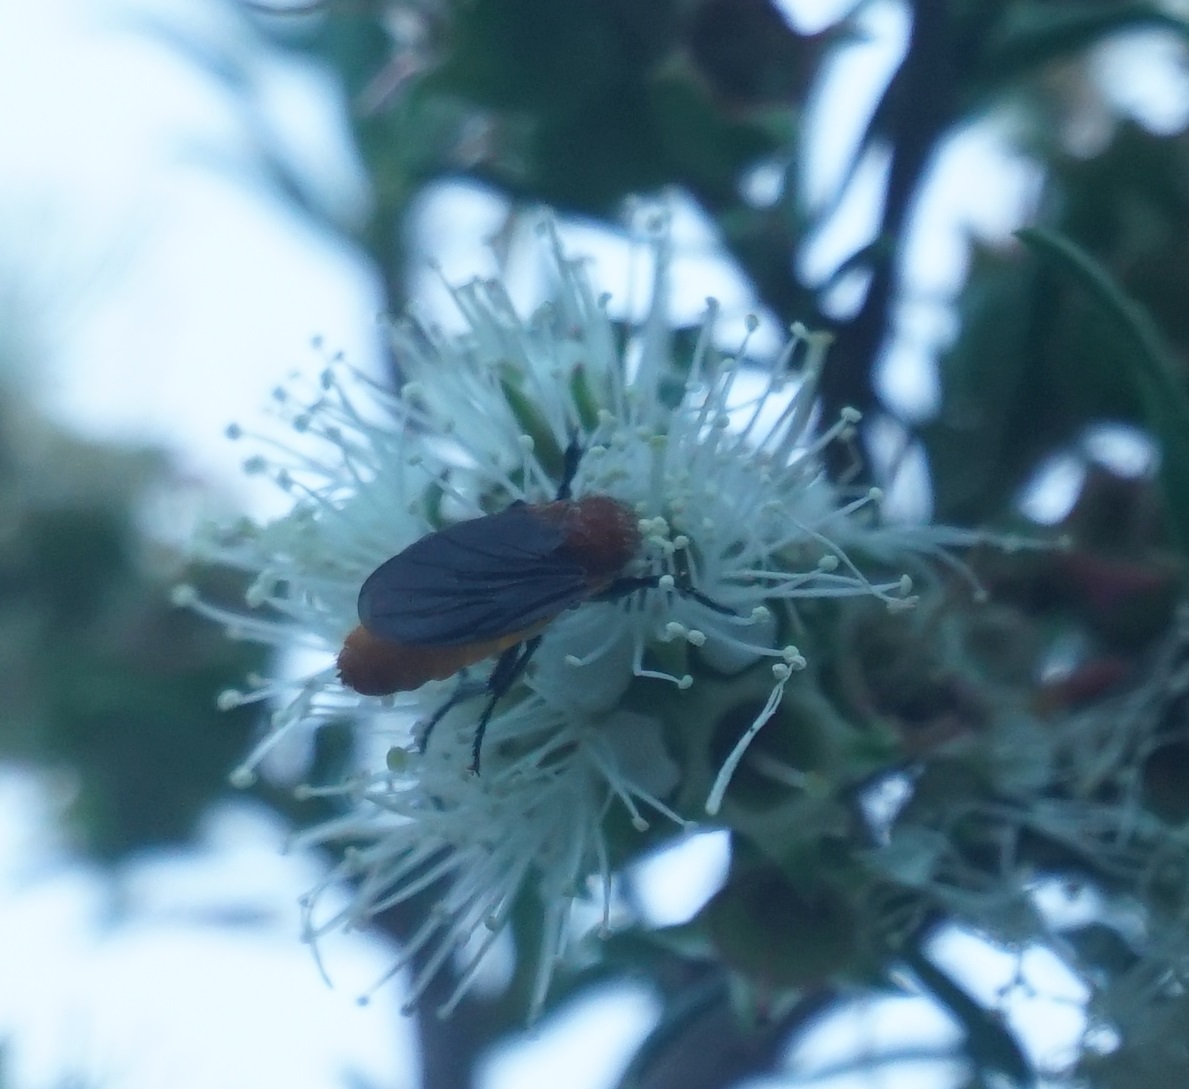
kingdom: Animalia
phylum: Arthropoda
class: Insecta
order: Diptera
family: Bibionidae
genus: Bibio
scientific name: Bibio imitator
